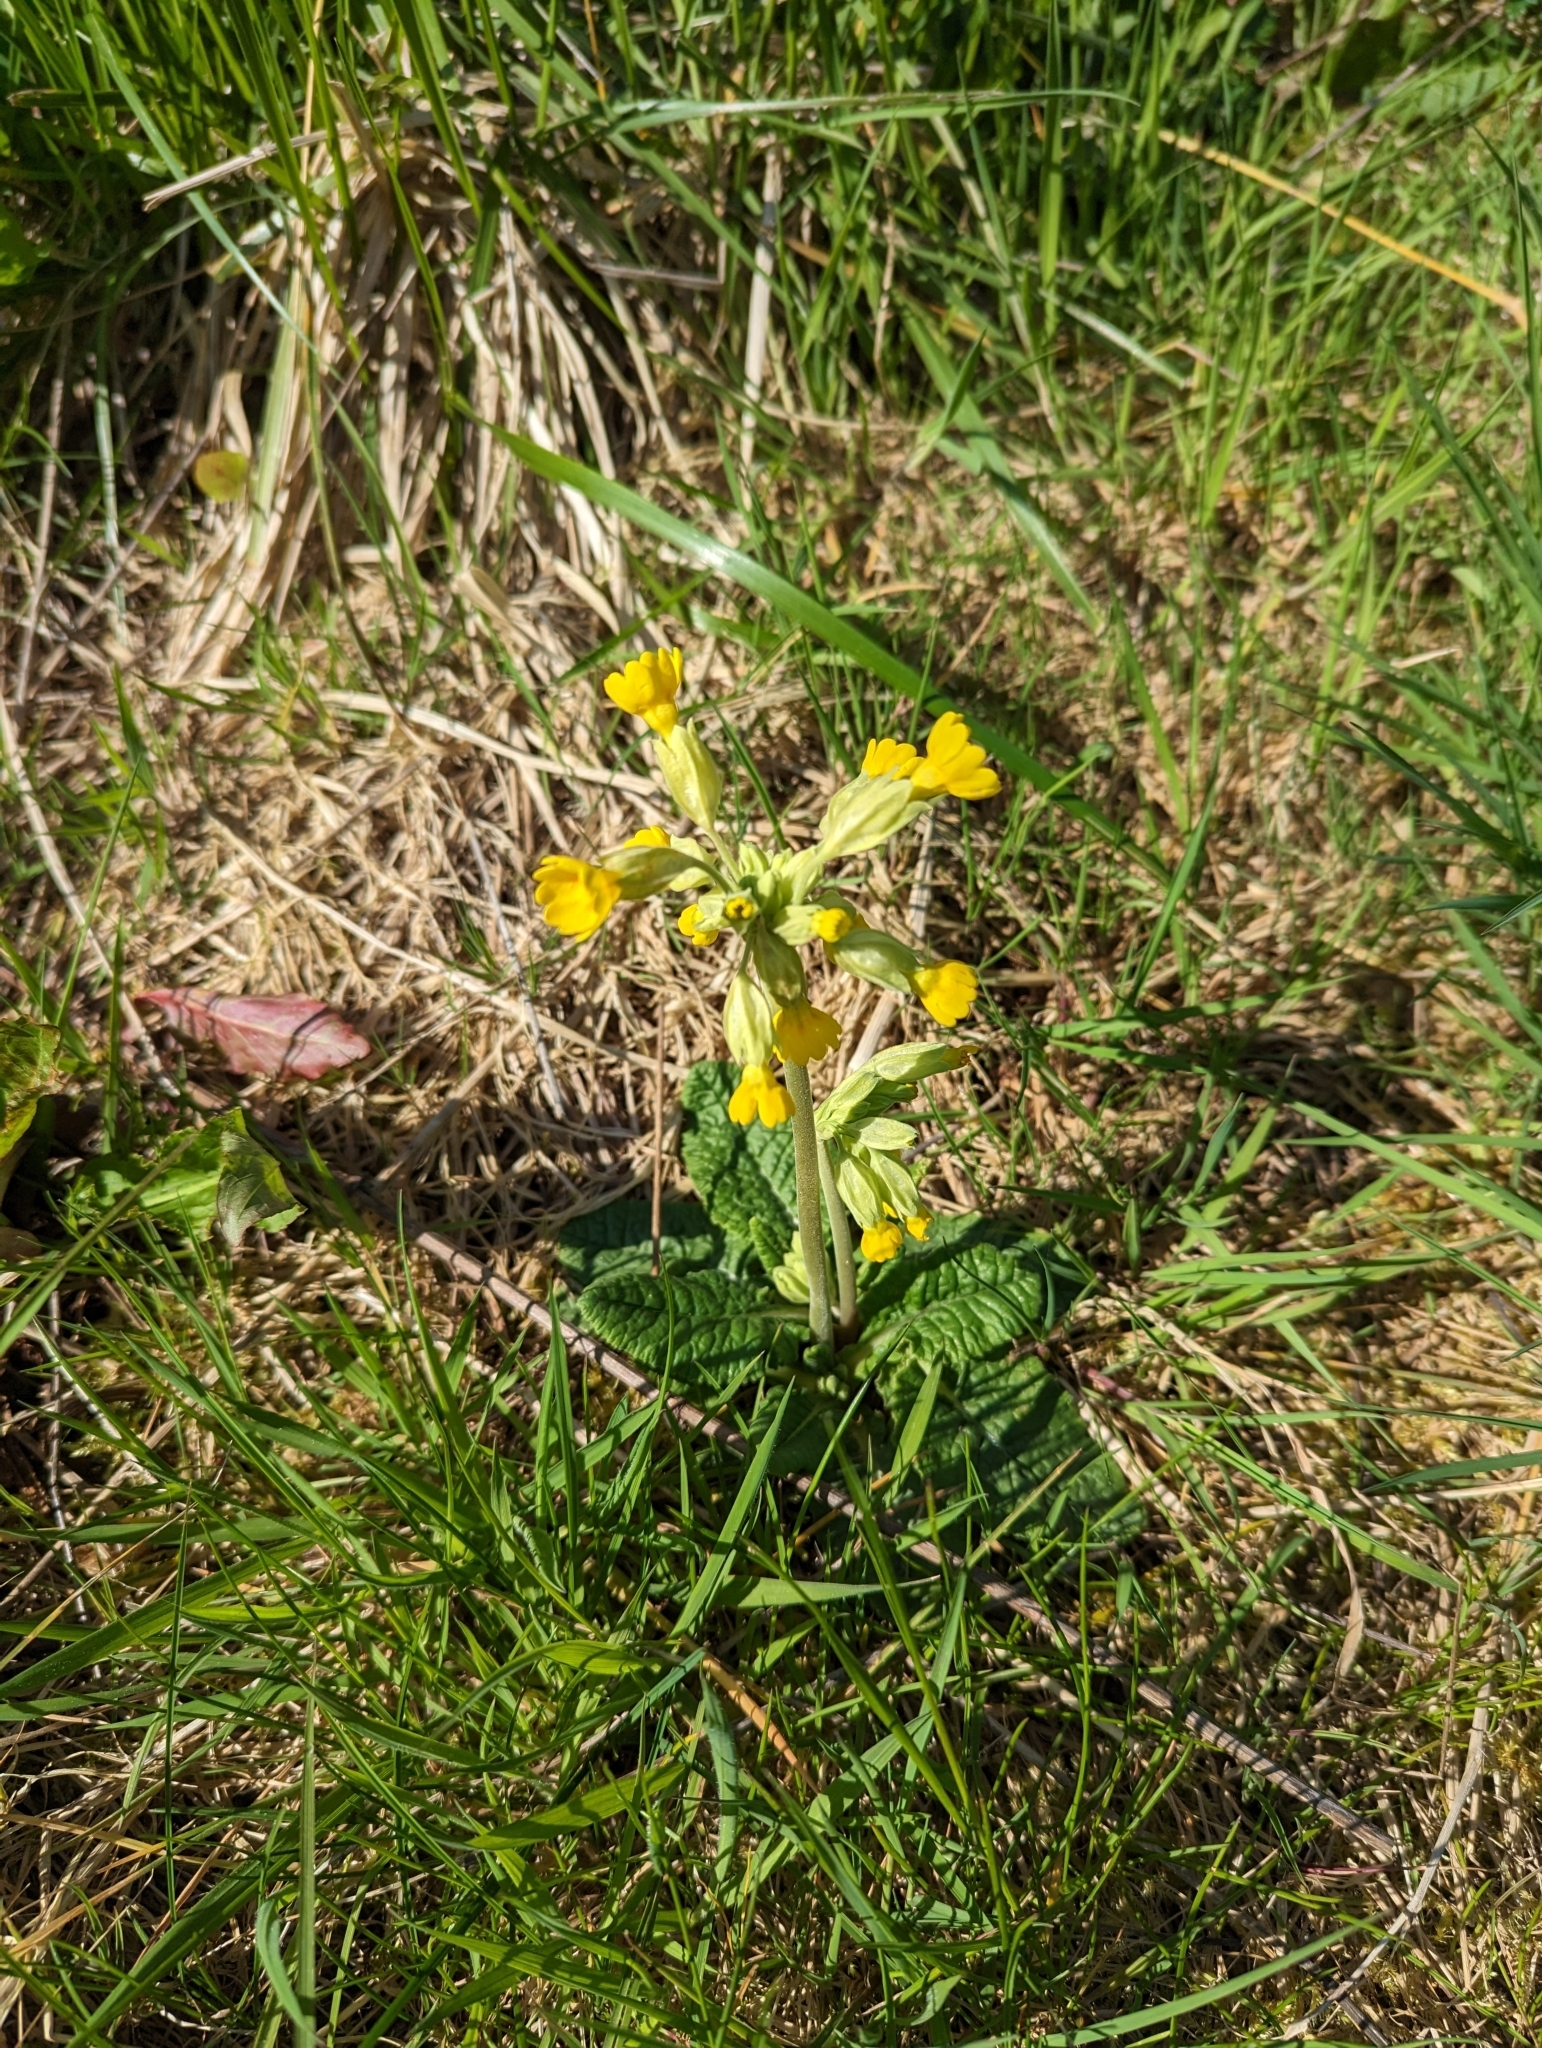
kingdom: Plantae
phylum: Tracheophyta
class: Magnoliopsida
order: Ericales
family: Primulaceae
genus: Primula
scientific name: Primula veris
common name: Cowslip
